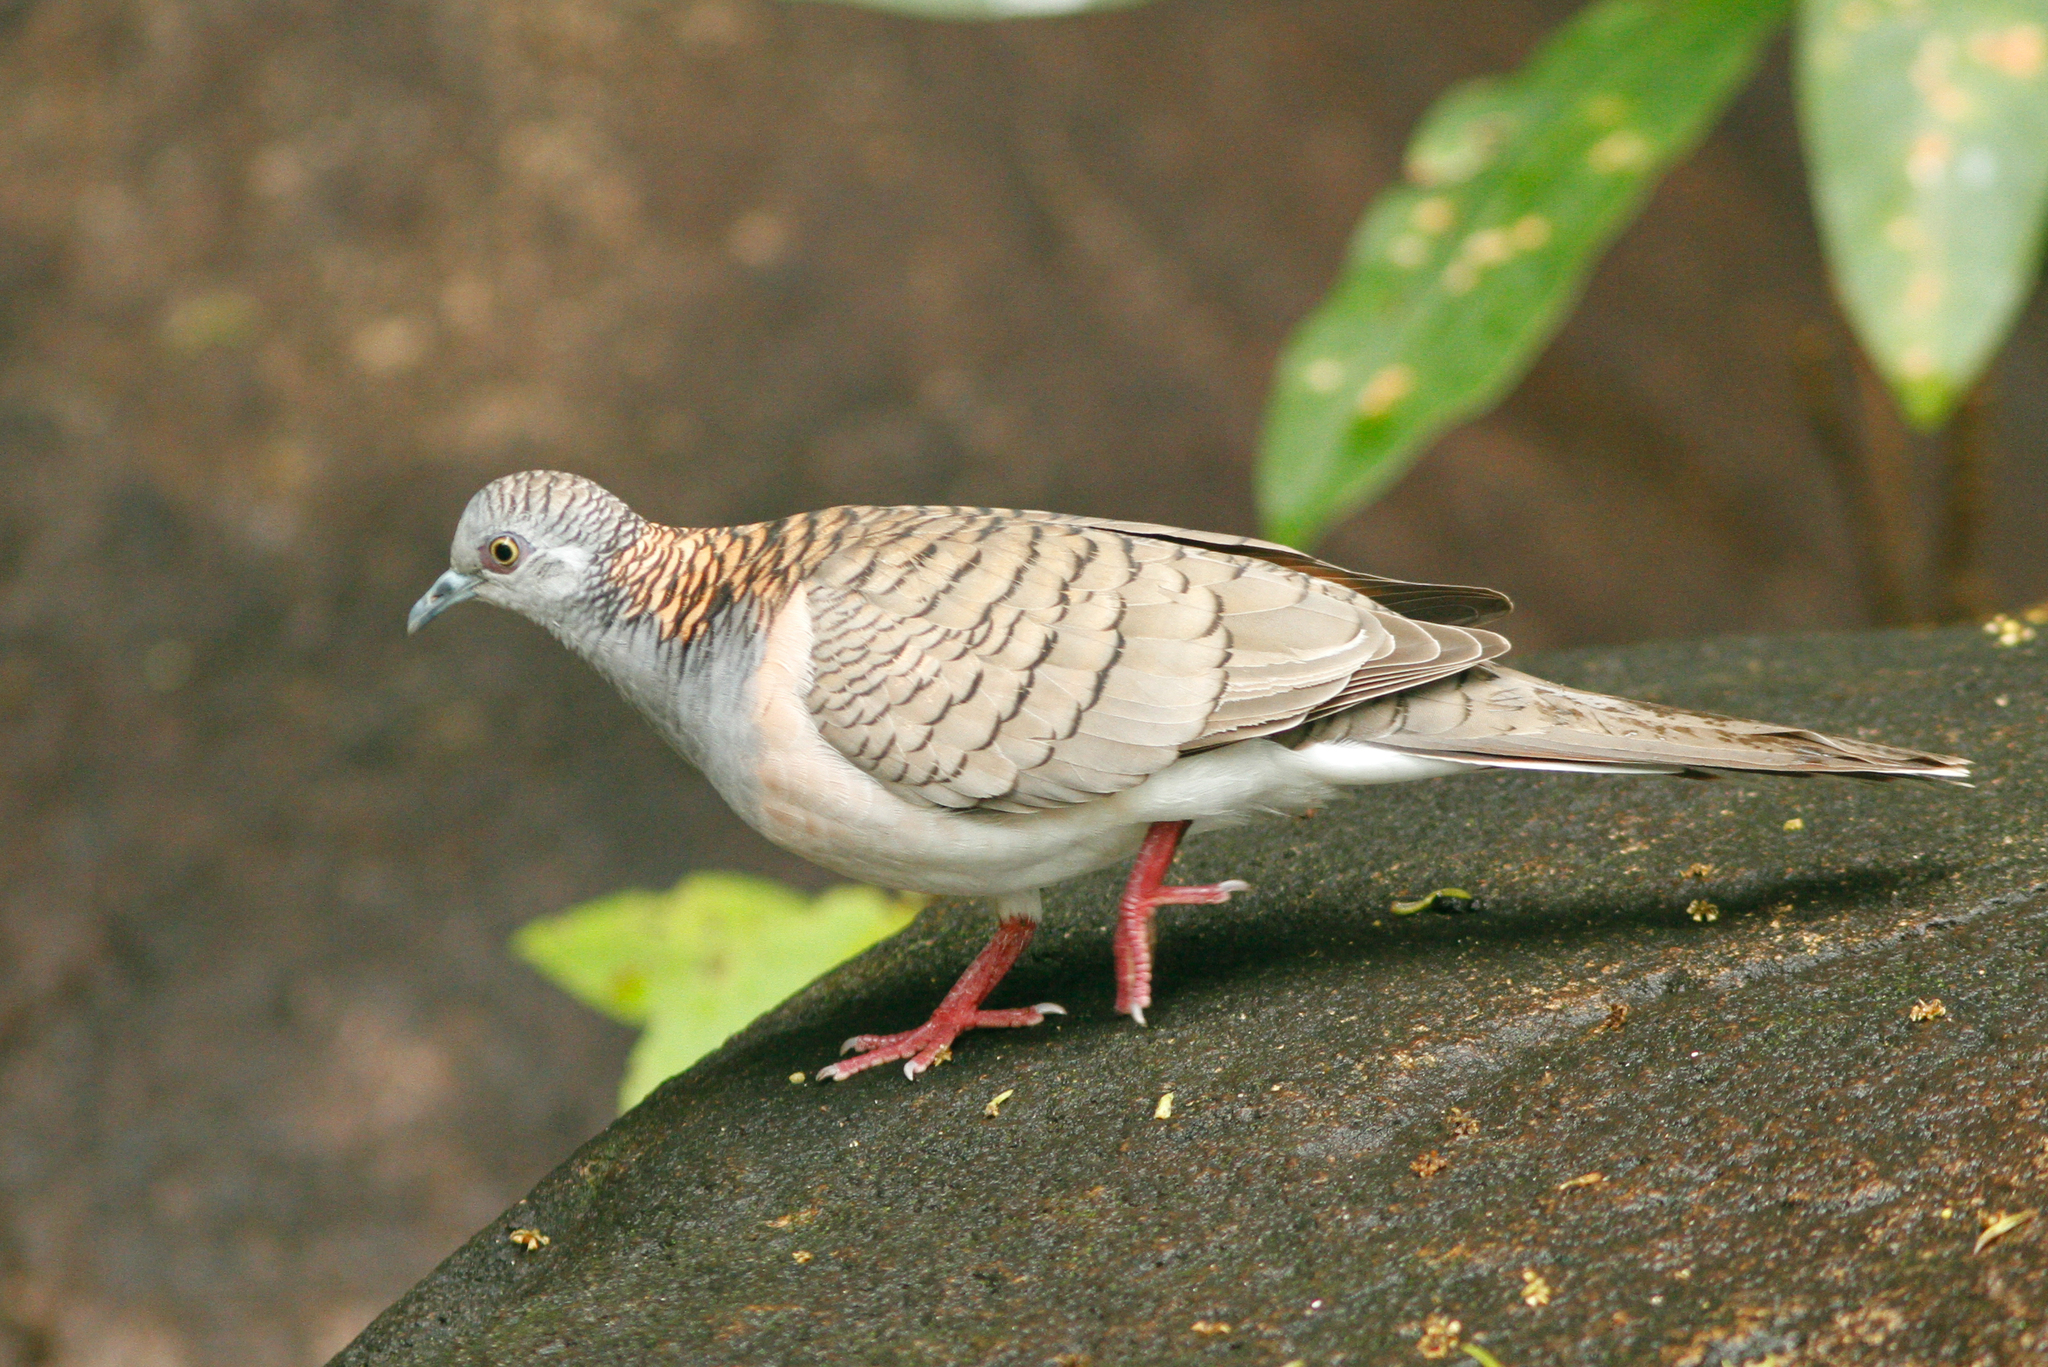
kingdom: Animalia
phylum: Chordata
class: Aves
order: Columbiformes
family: Columbidae
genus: Geopelia
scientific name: Geopelia humeralis
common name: Bar-shouldered dove
